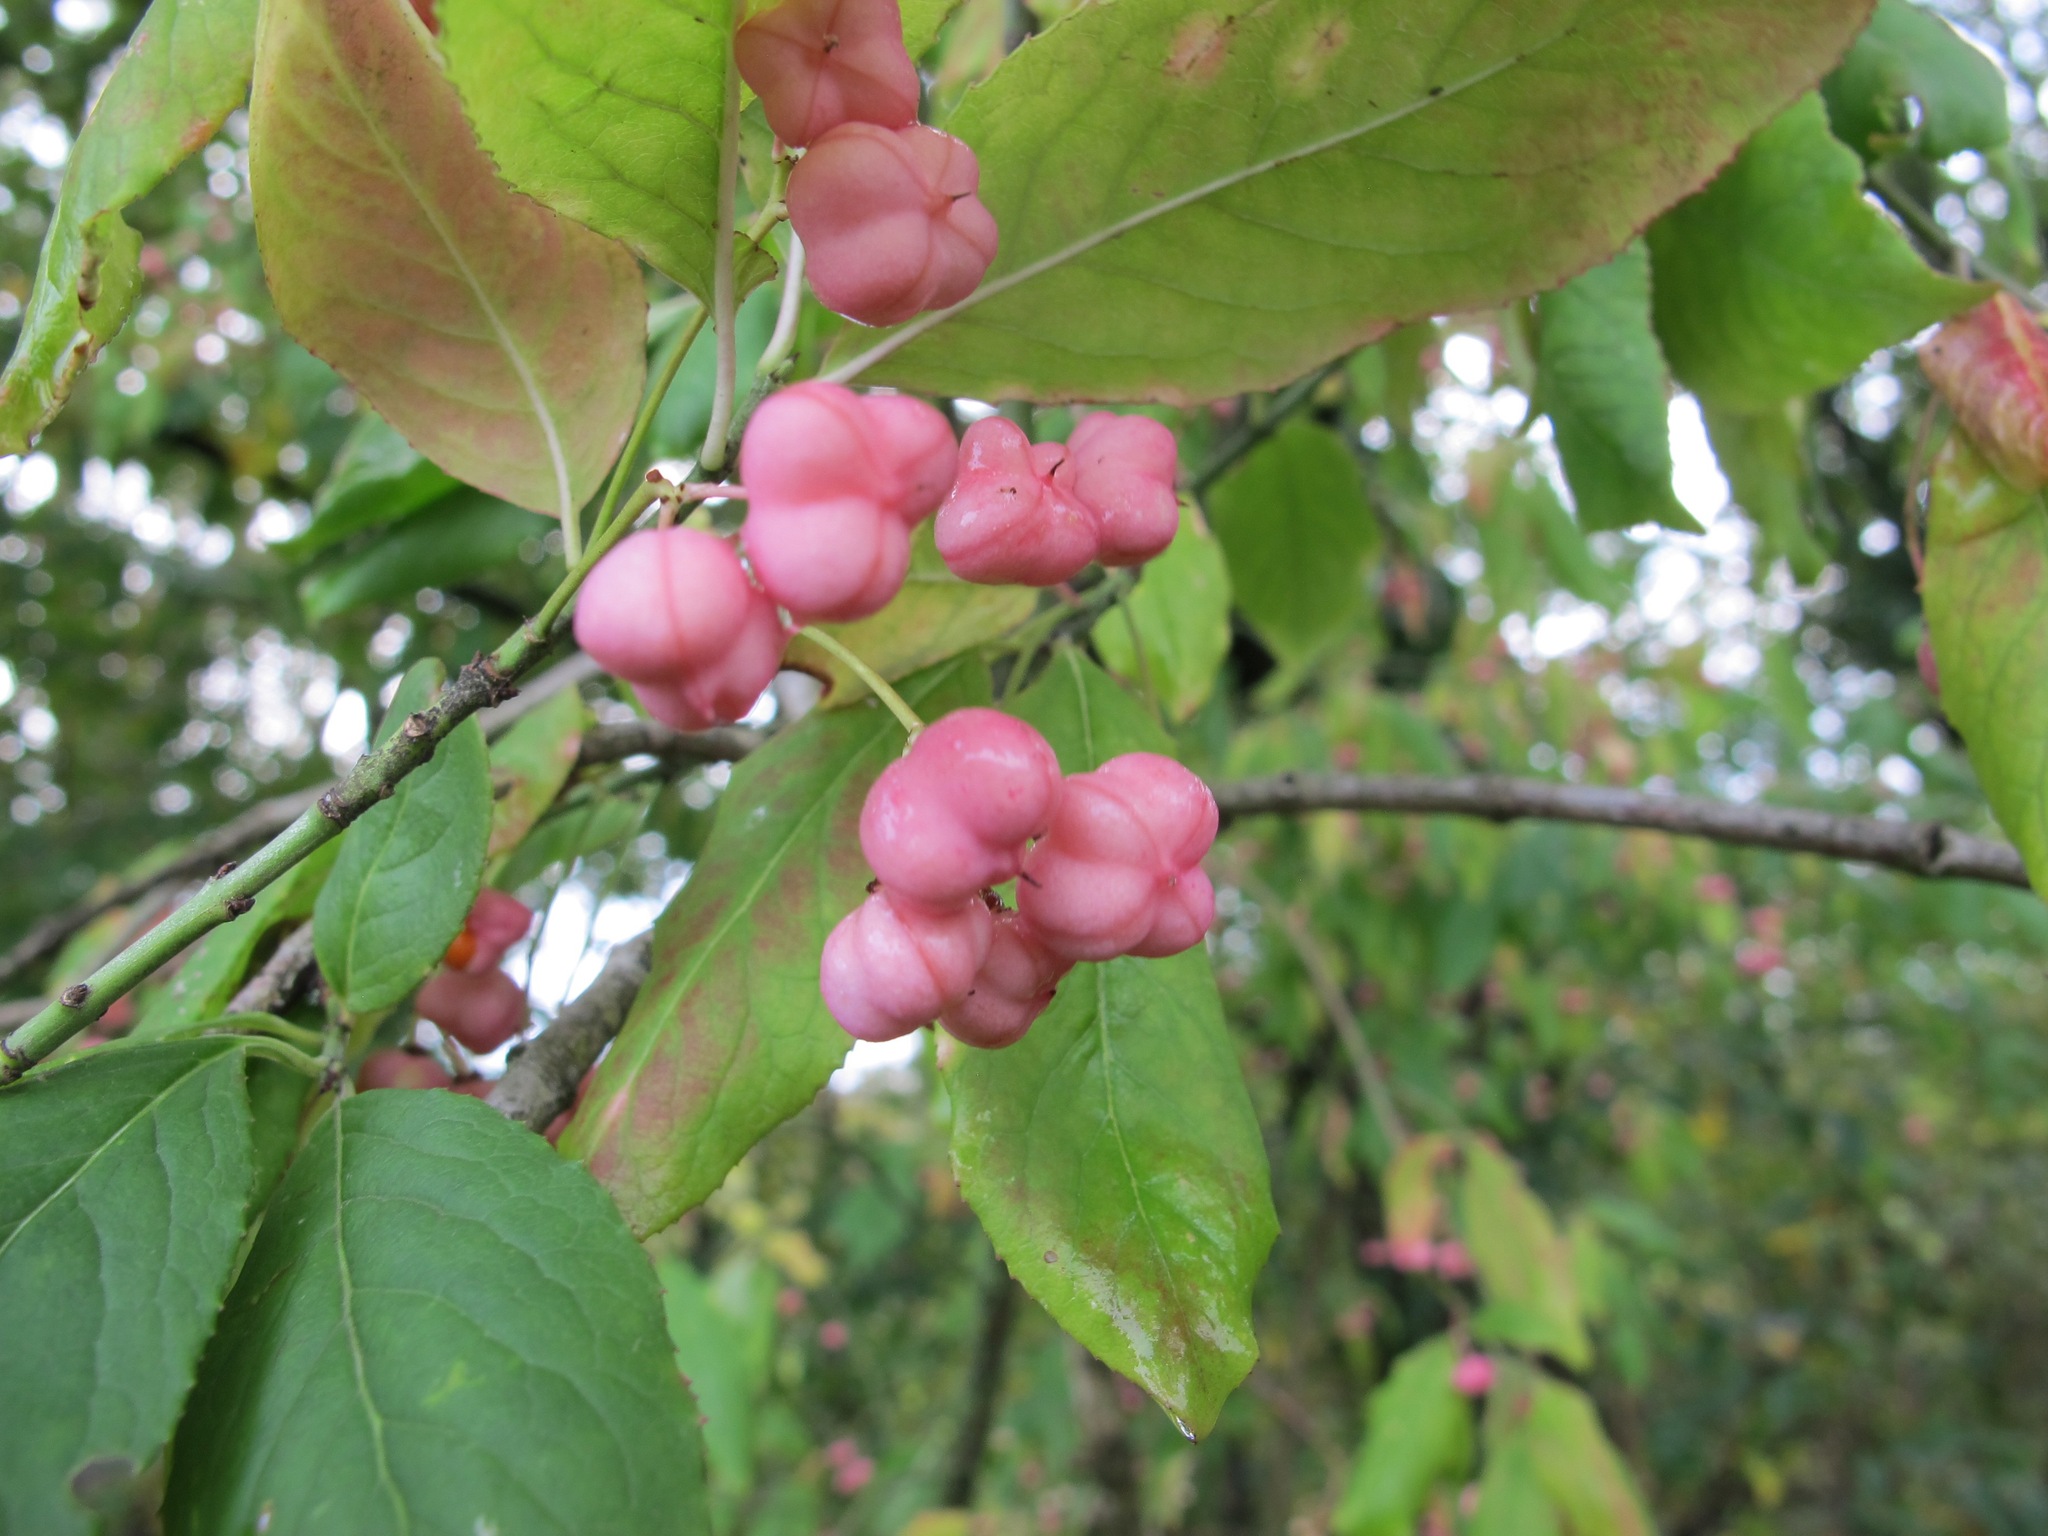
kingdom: Plantae
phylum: Tracheophyta
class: Magnoliopsida
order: Celastrales
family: Celastraceae
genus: Euonymus
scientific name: Euonymus europaeus
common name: Spindle
